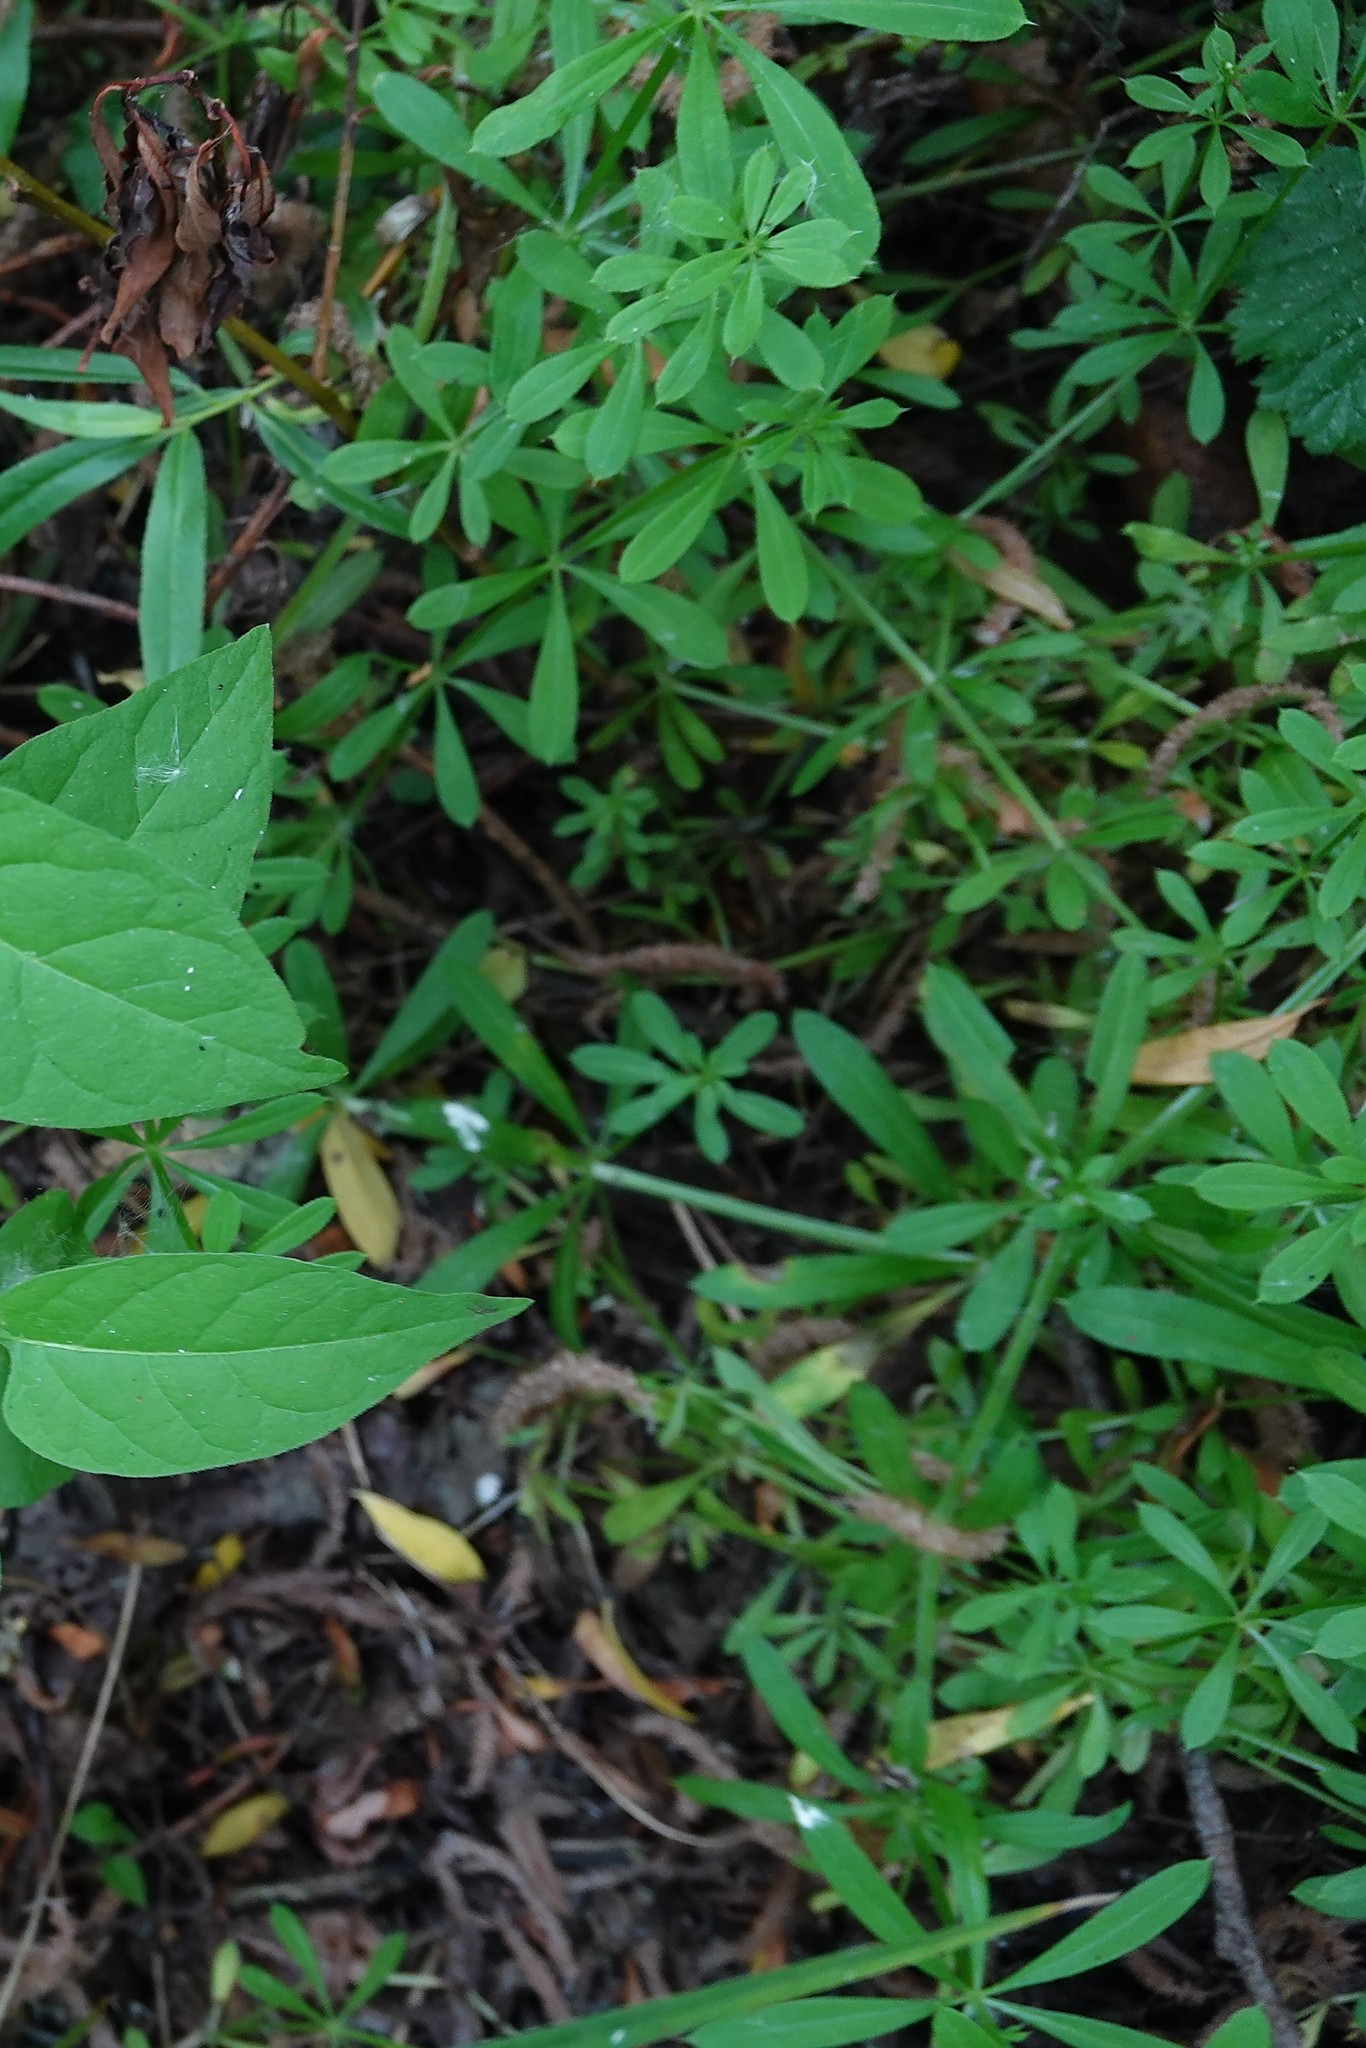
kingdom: Plantae
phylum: Tracheophyta
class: Magnoliopsida
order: Gentianales
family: Rubiaceae
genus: Galium
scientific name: Galium aparine
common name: Cleavers
